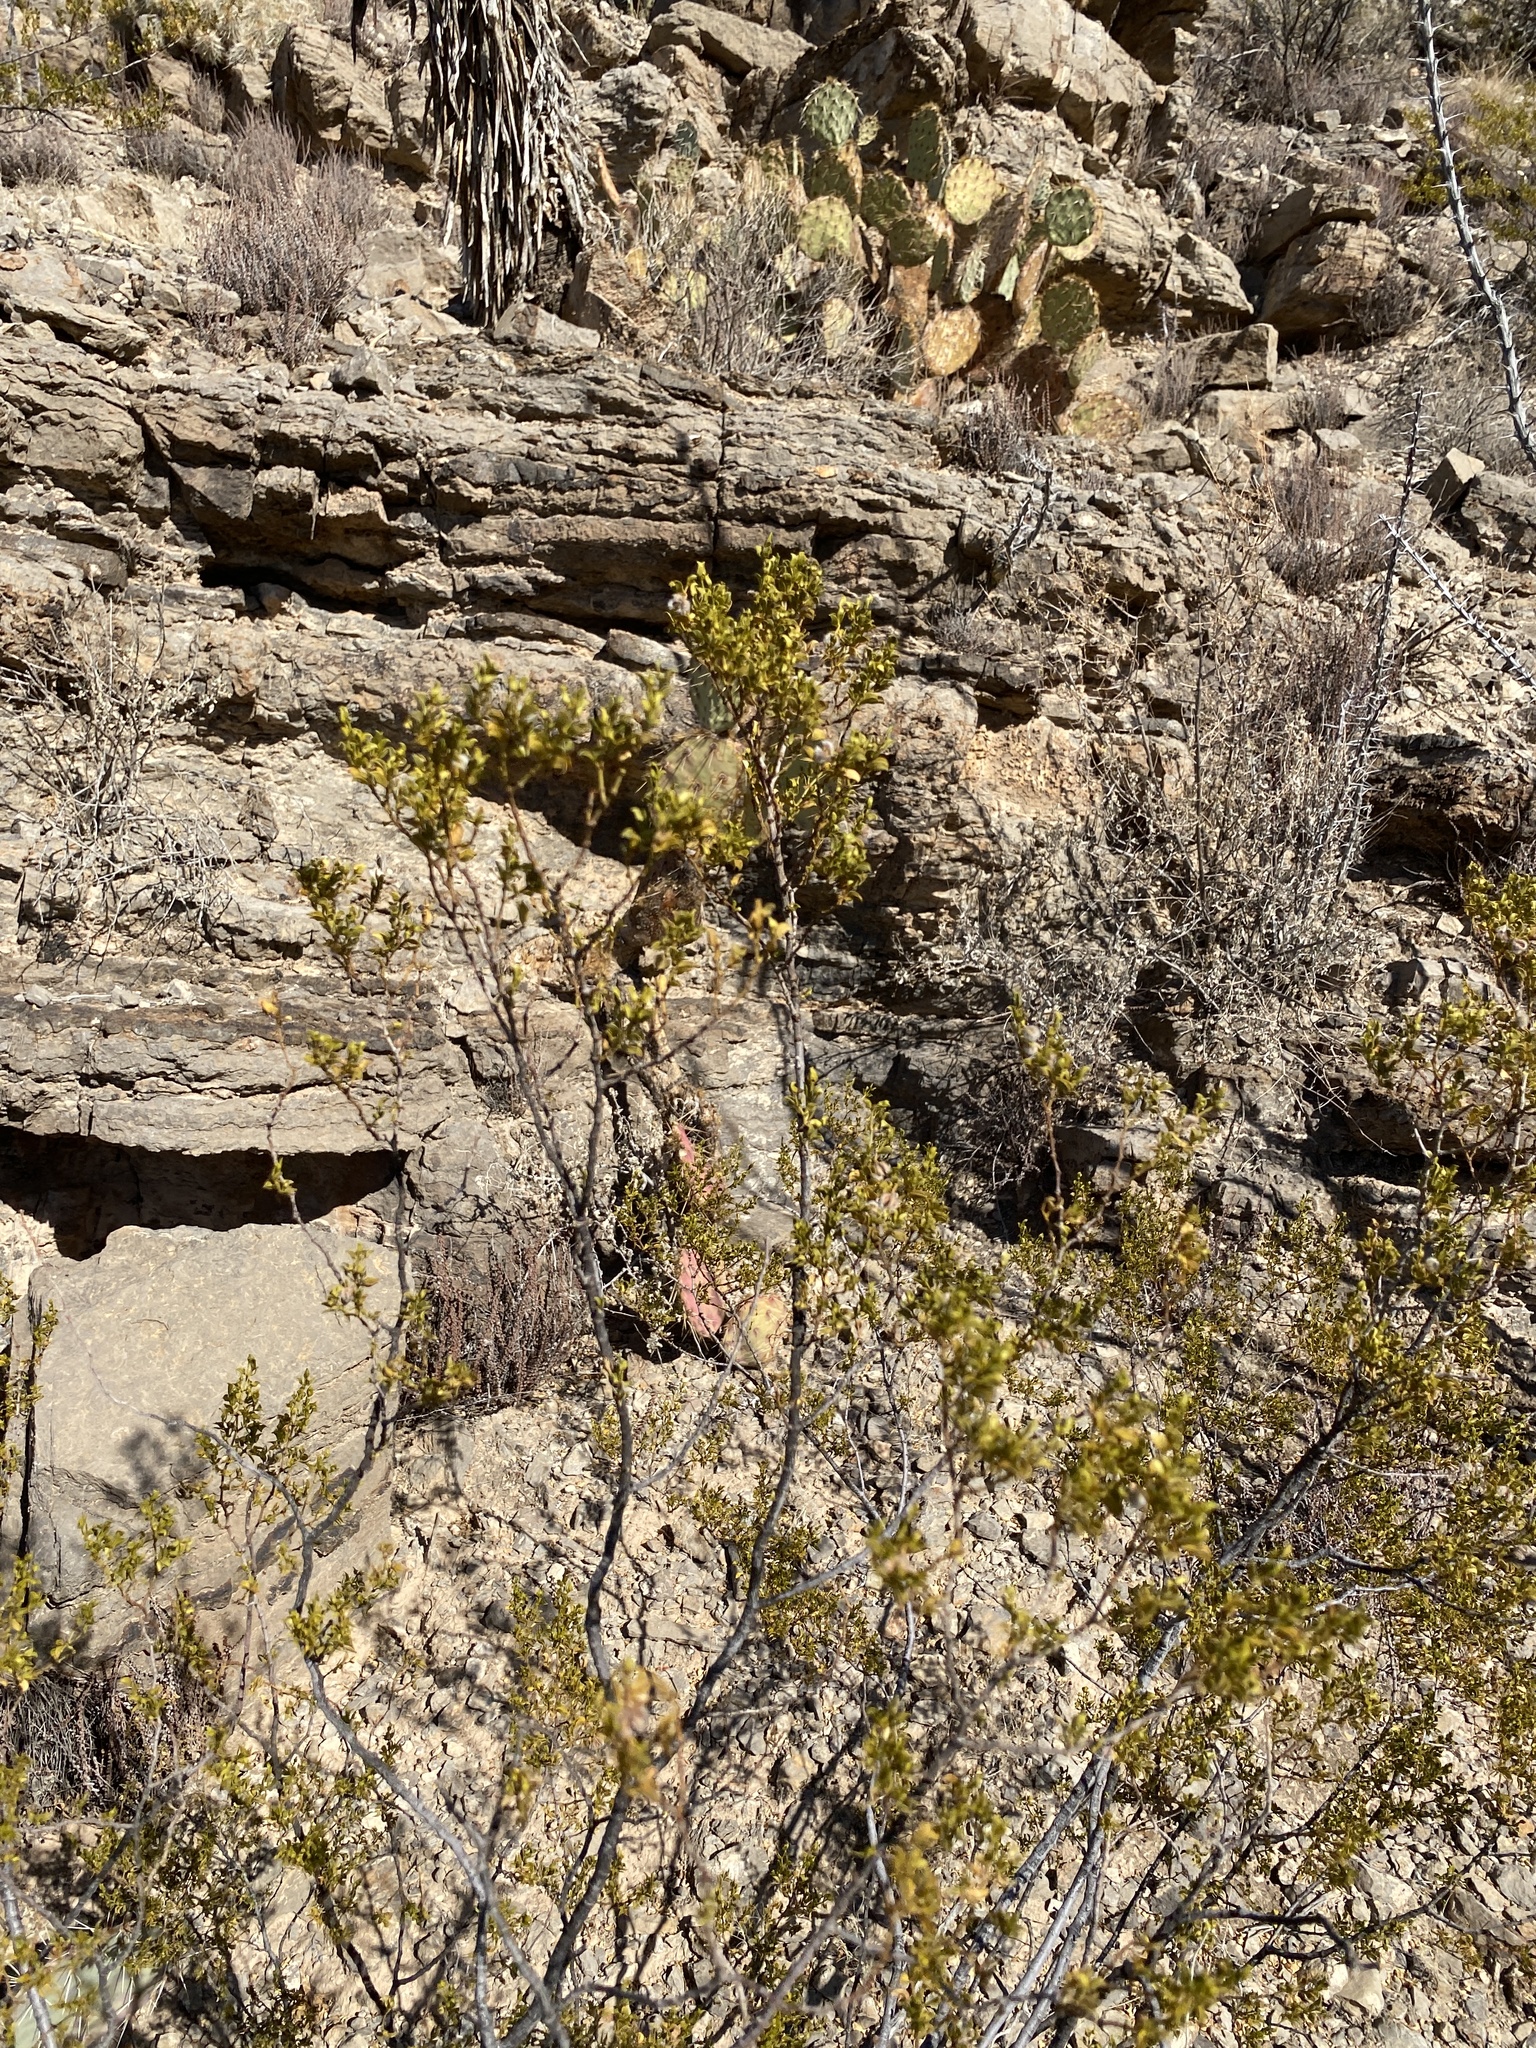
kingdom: Plantae
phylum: Tracheophyta
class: Magnoliopsida
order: Zygophyllales
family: Zygophyllaceae
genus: Larrea
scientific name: Larrea tridentata
